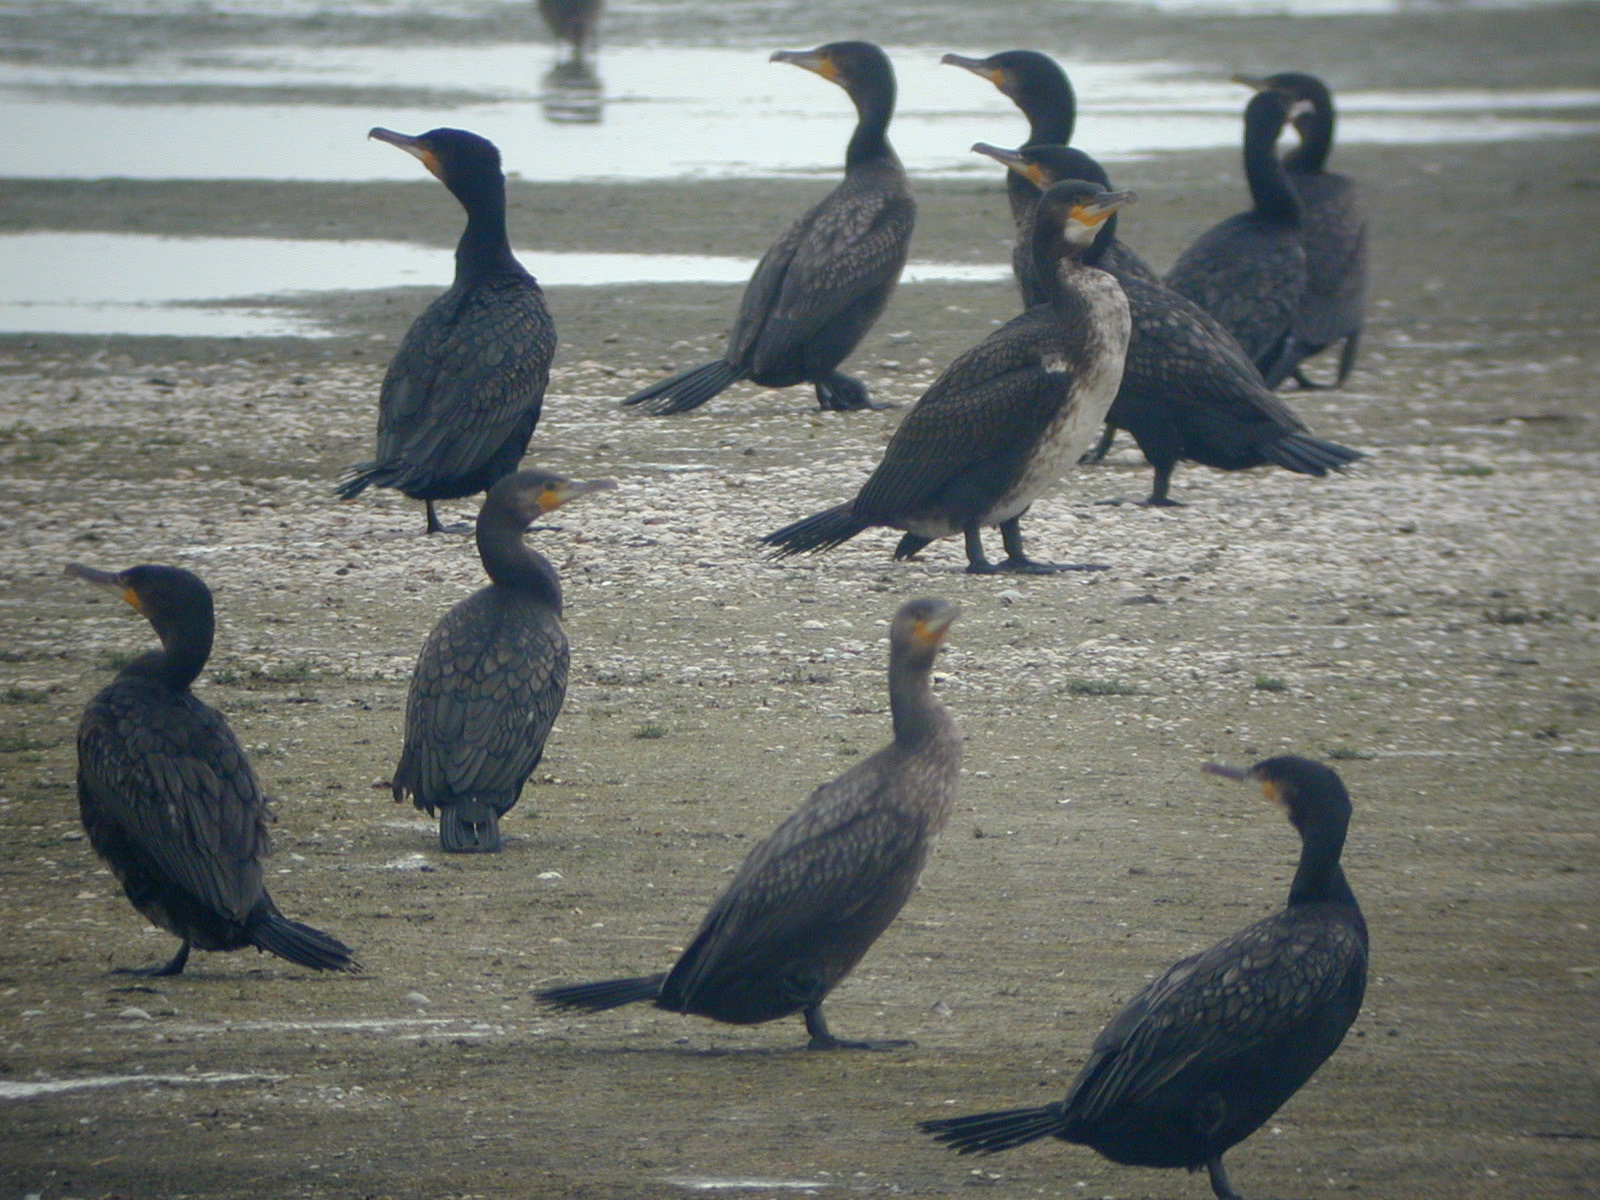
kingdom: Animalia
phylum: Chordata
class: Aves
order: Suliformes
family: Phalacrocoracidae
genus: Phalacrocorax
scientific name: Phalacrocorax carbo
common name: Great cormorant
